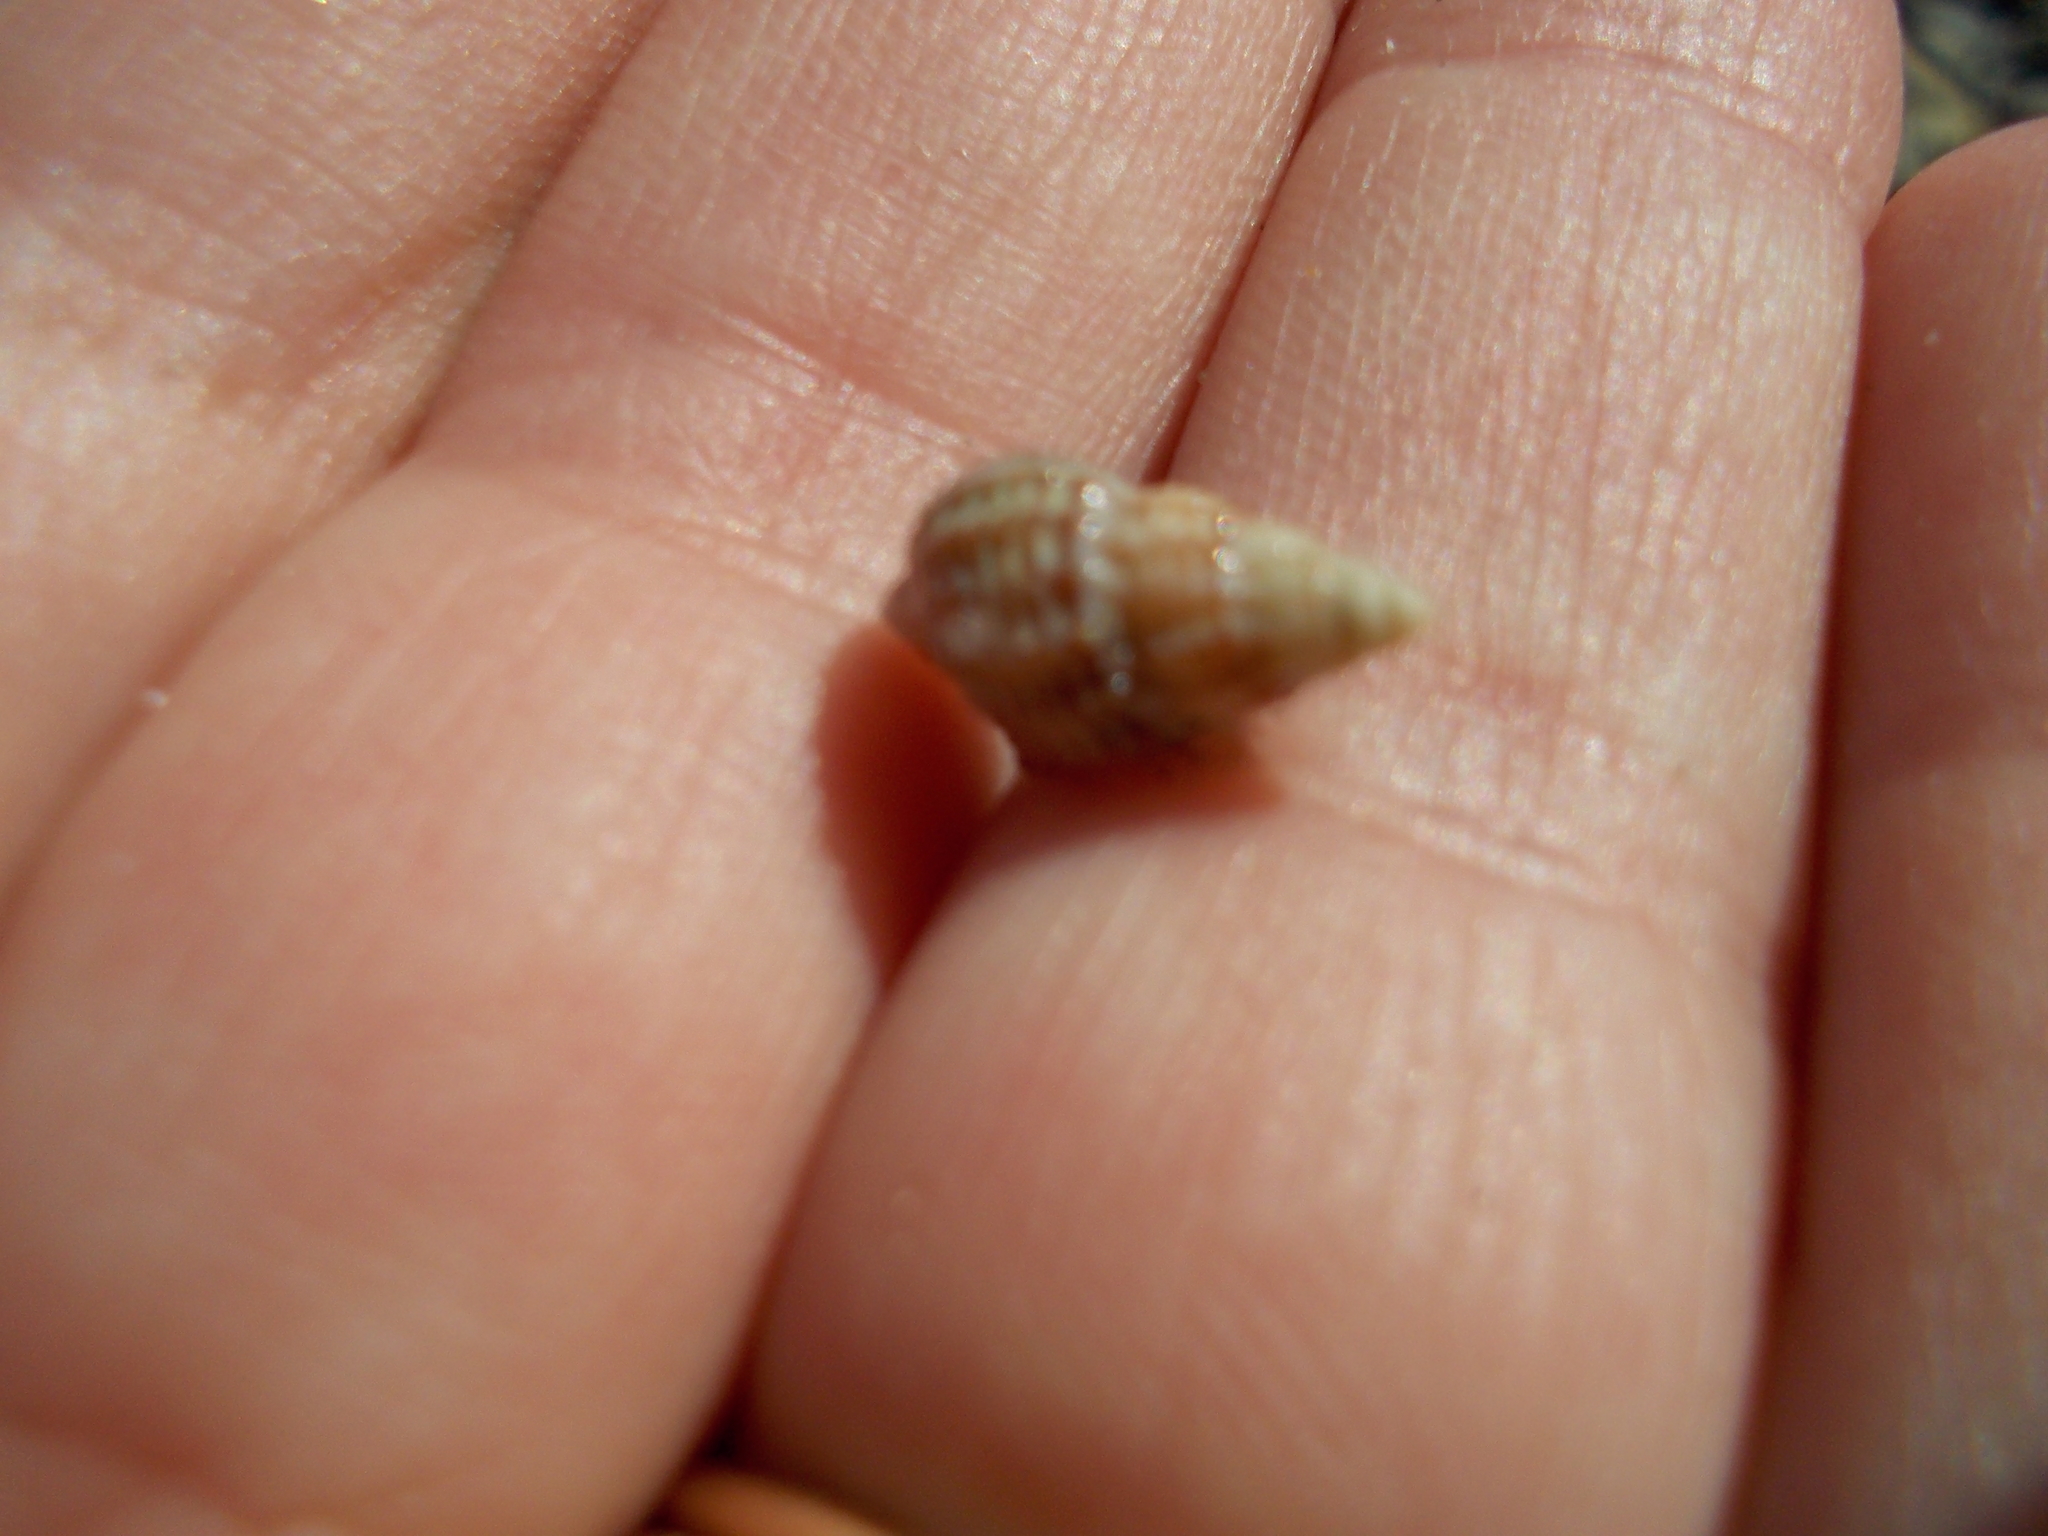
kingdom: Animalia
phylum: Mollusca
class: Gastropoda
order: Neogastropoda
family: Nassariidae
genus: Ilyanassa
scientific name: Ilyanassa trivittata
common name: Three-line mudsnail
